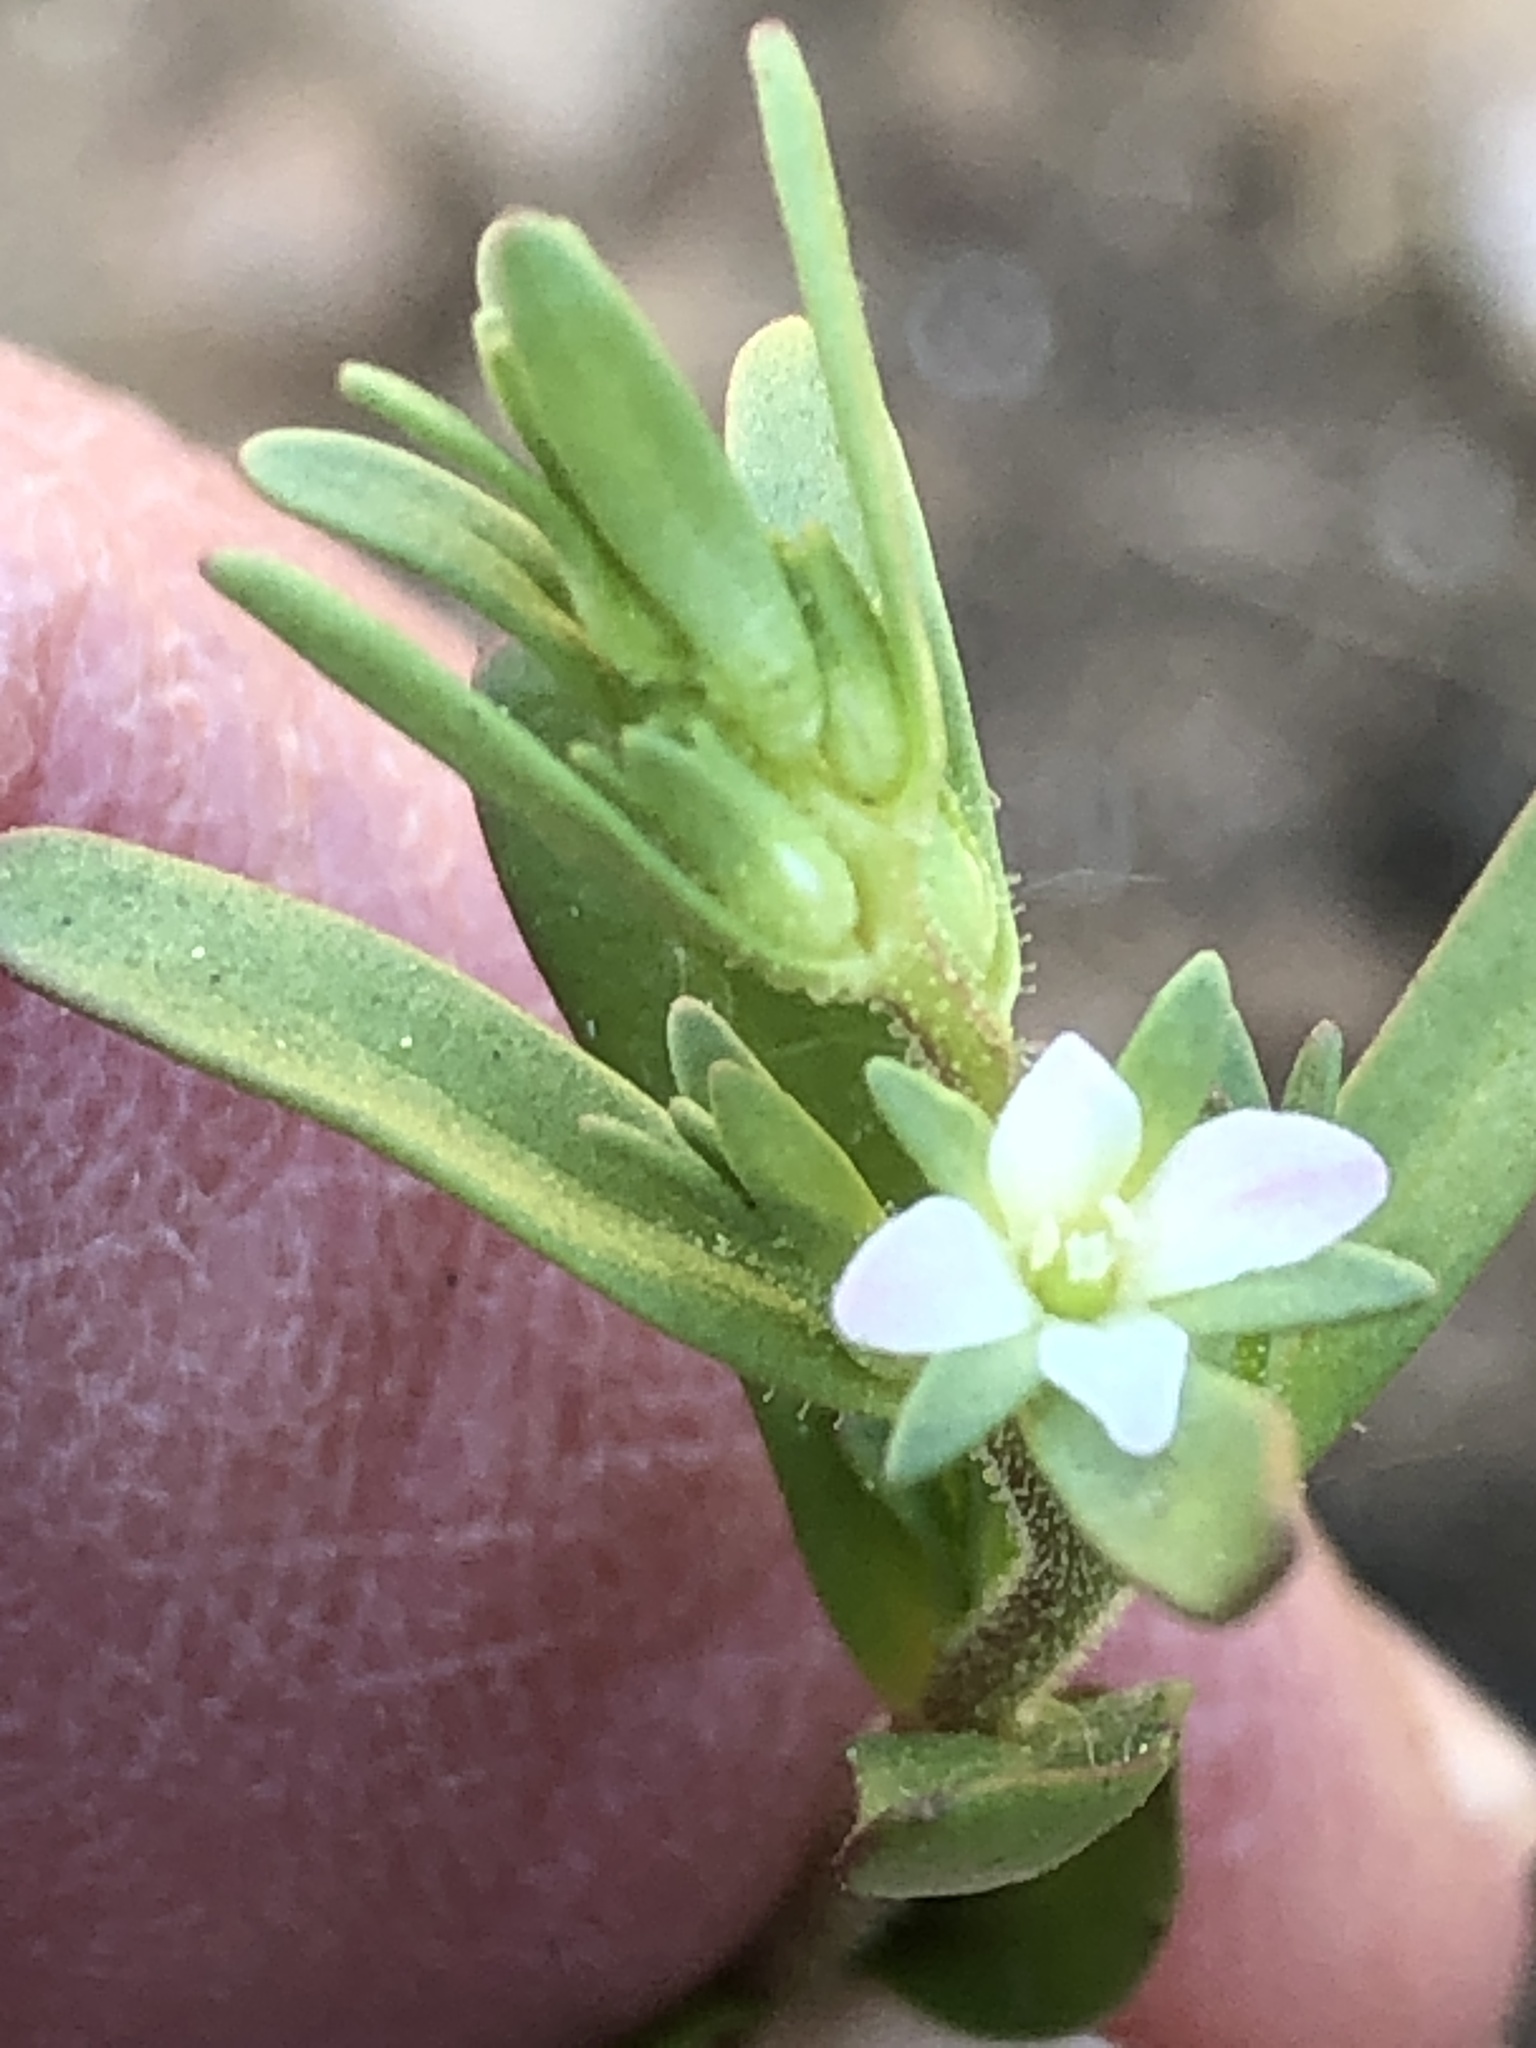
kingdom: Plantae
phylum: Tracheophyta
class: Magnoliopsida
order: Lamiales
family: Plantaginaceae
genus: Veronica
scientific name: Veronica peregrina
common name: Neckweed
